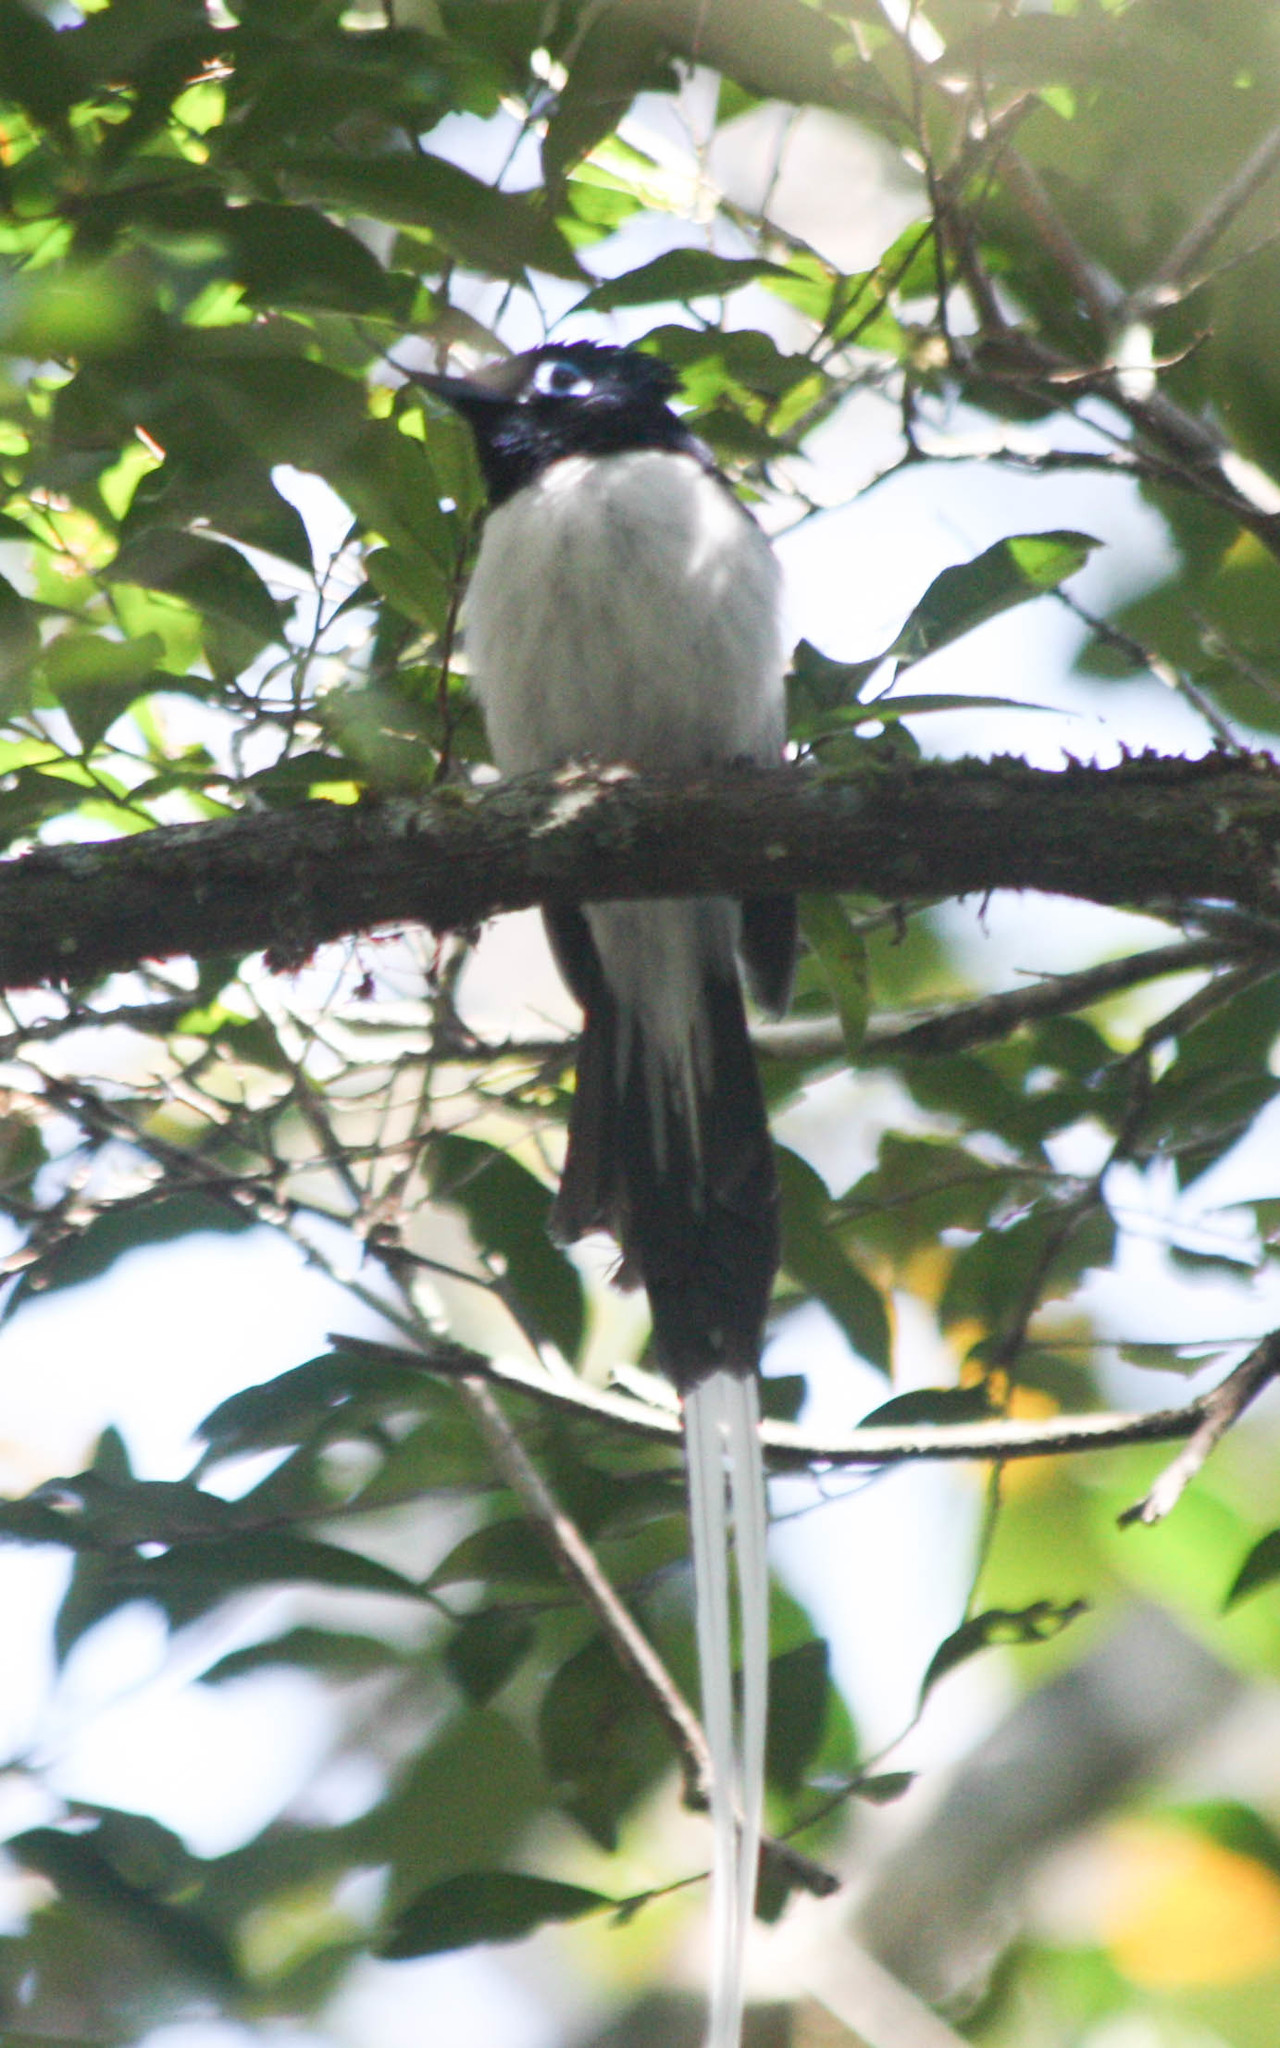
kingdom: Animalia
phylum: Chordata
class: Aves
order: Passeriformes
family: Monarchidae
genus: Terpsiphone
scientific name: Terpsiphone mutata
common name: Malagasy paradise flycatcher
